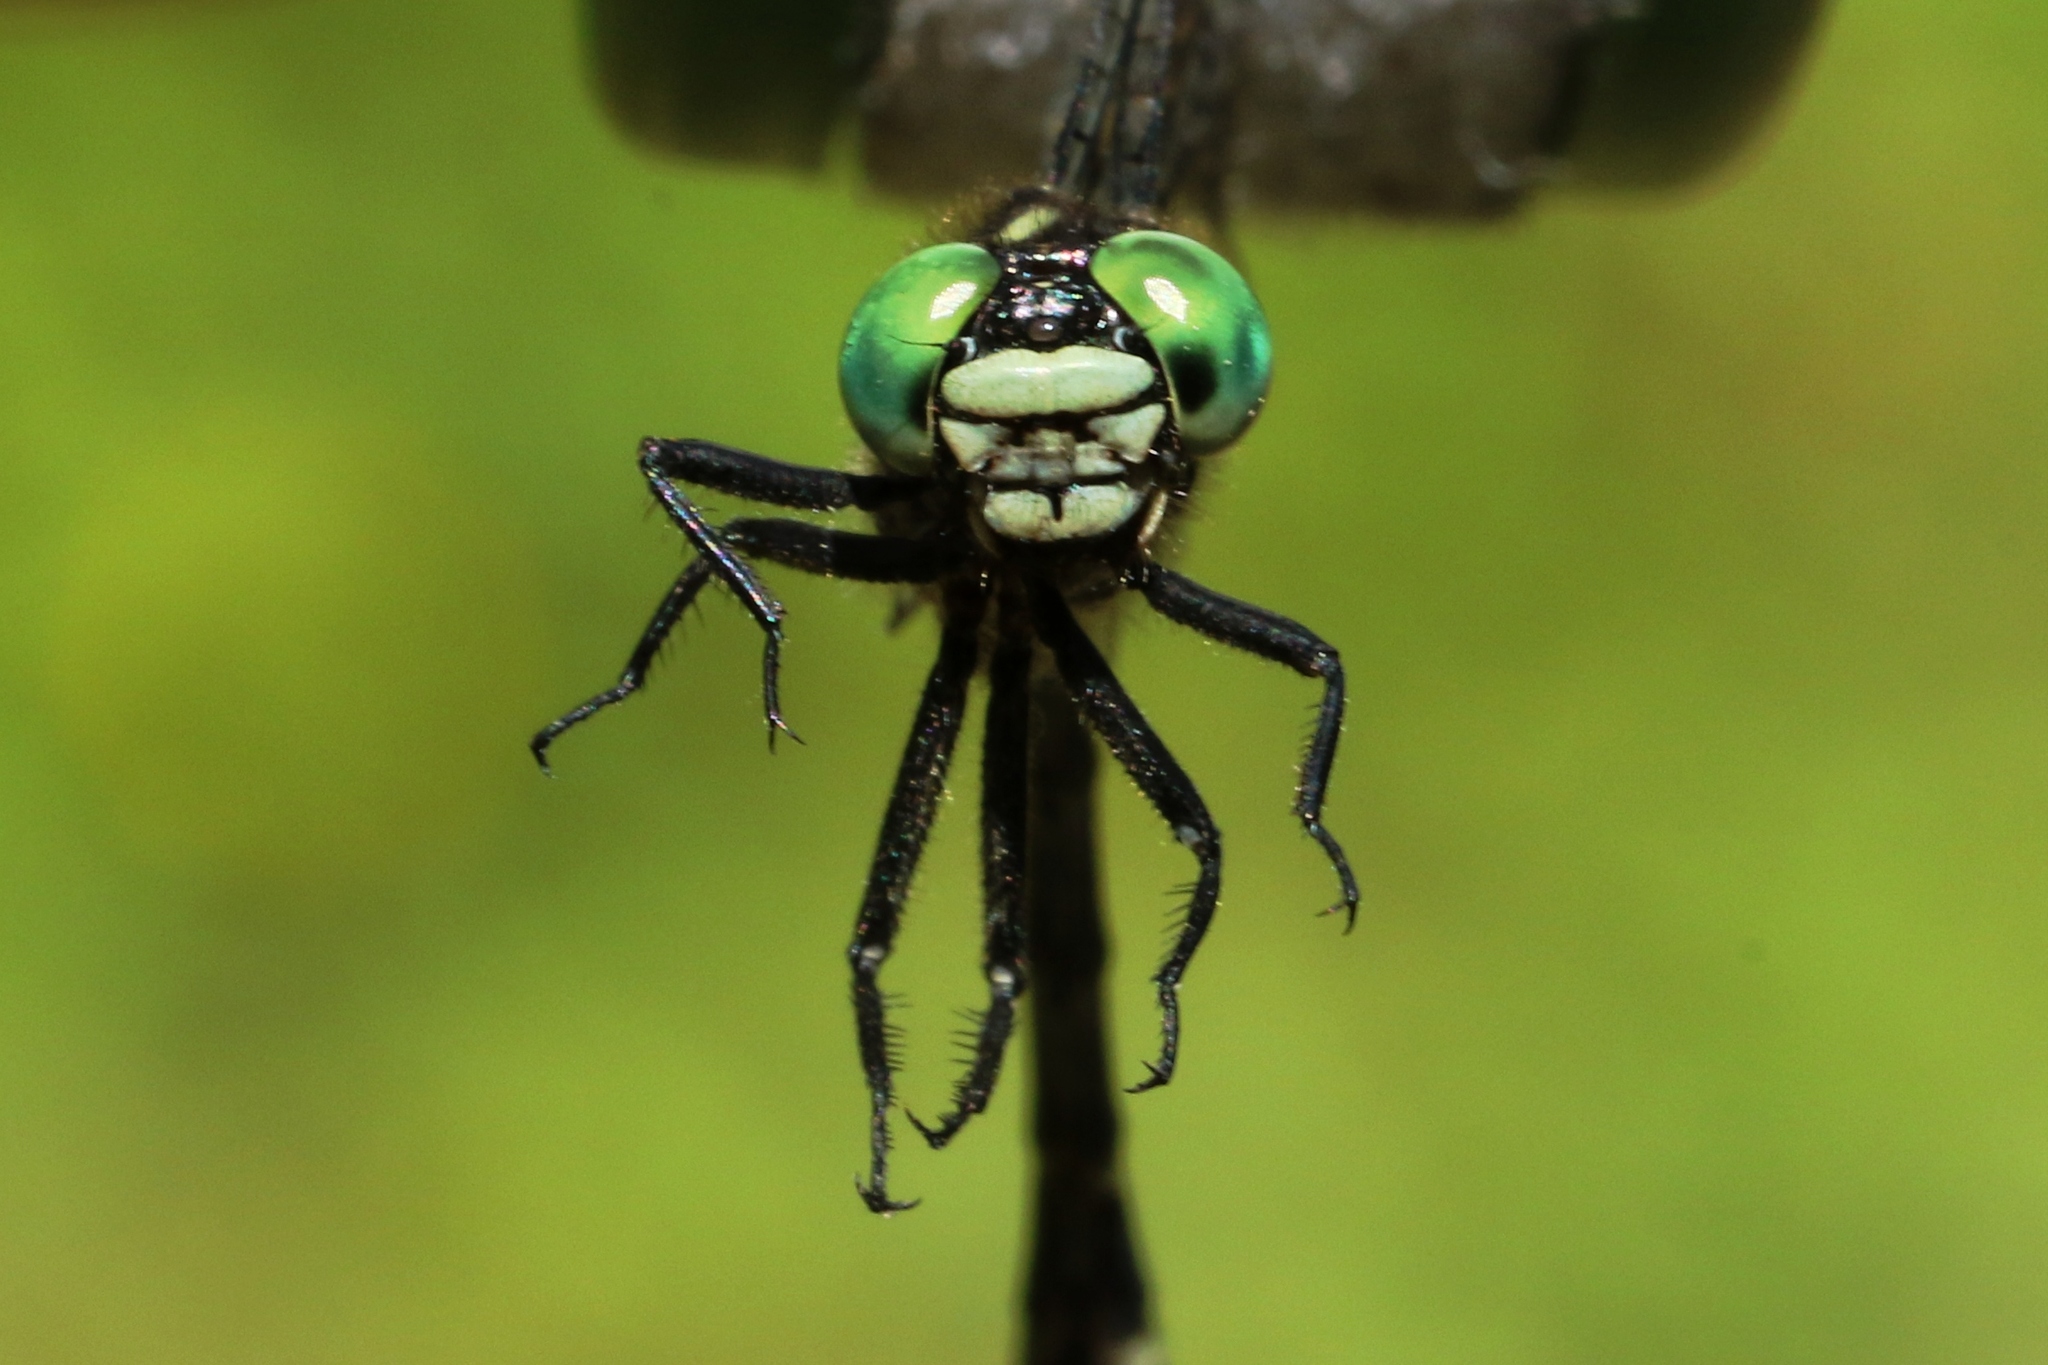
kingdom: Animalia
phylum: Arthropoda
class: Insecta
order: Odonata
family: Gomphidae
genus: Stylogomphus
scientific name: Stylogomphus albistylus
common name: Eastern least clubtail
